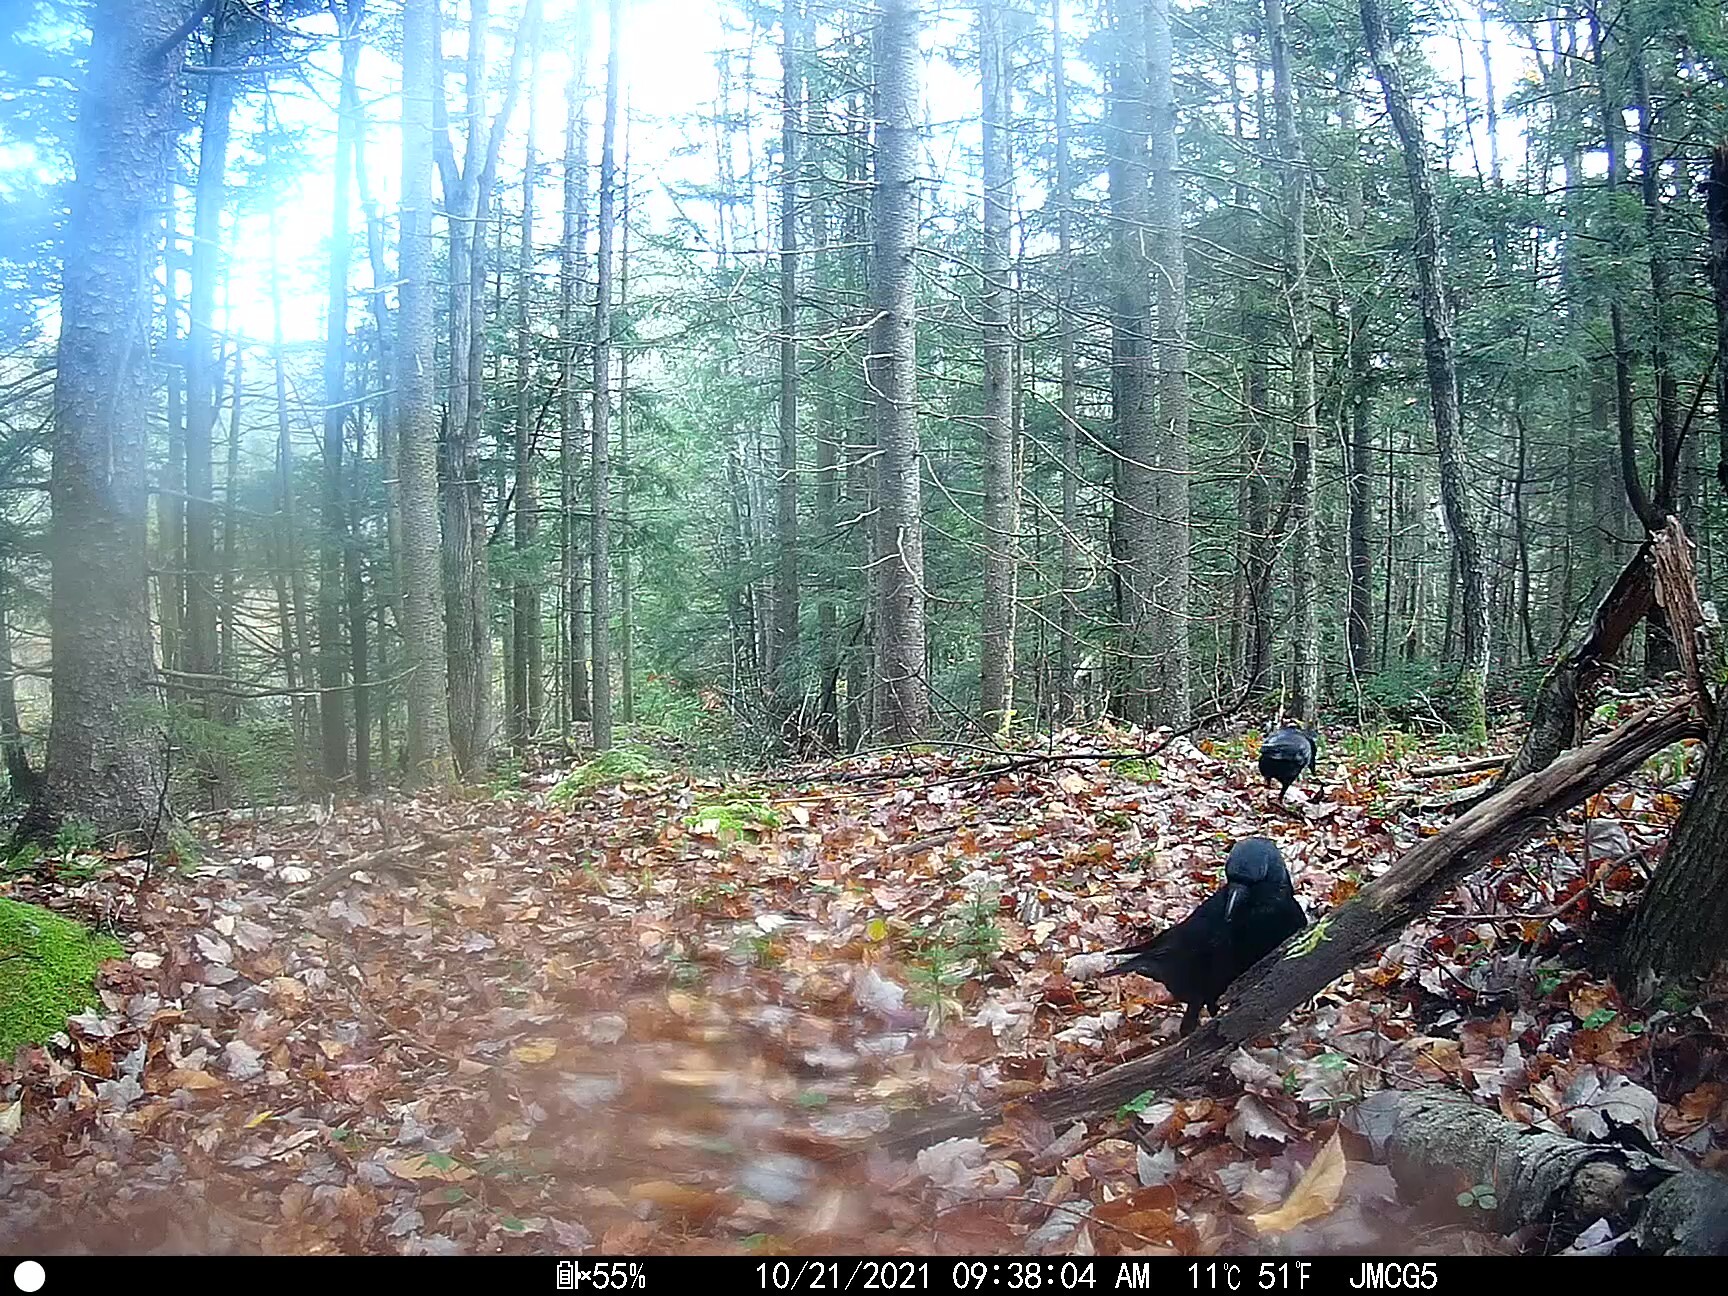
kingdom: Animalia
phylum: Chordata
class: Aves
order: Passeriformes
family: Corvidae
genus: Corvus
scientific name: Corvus brachyrhynchos
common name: American crow
